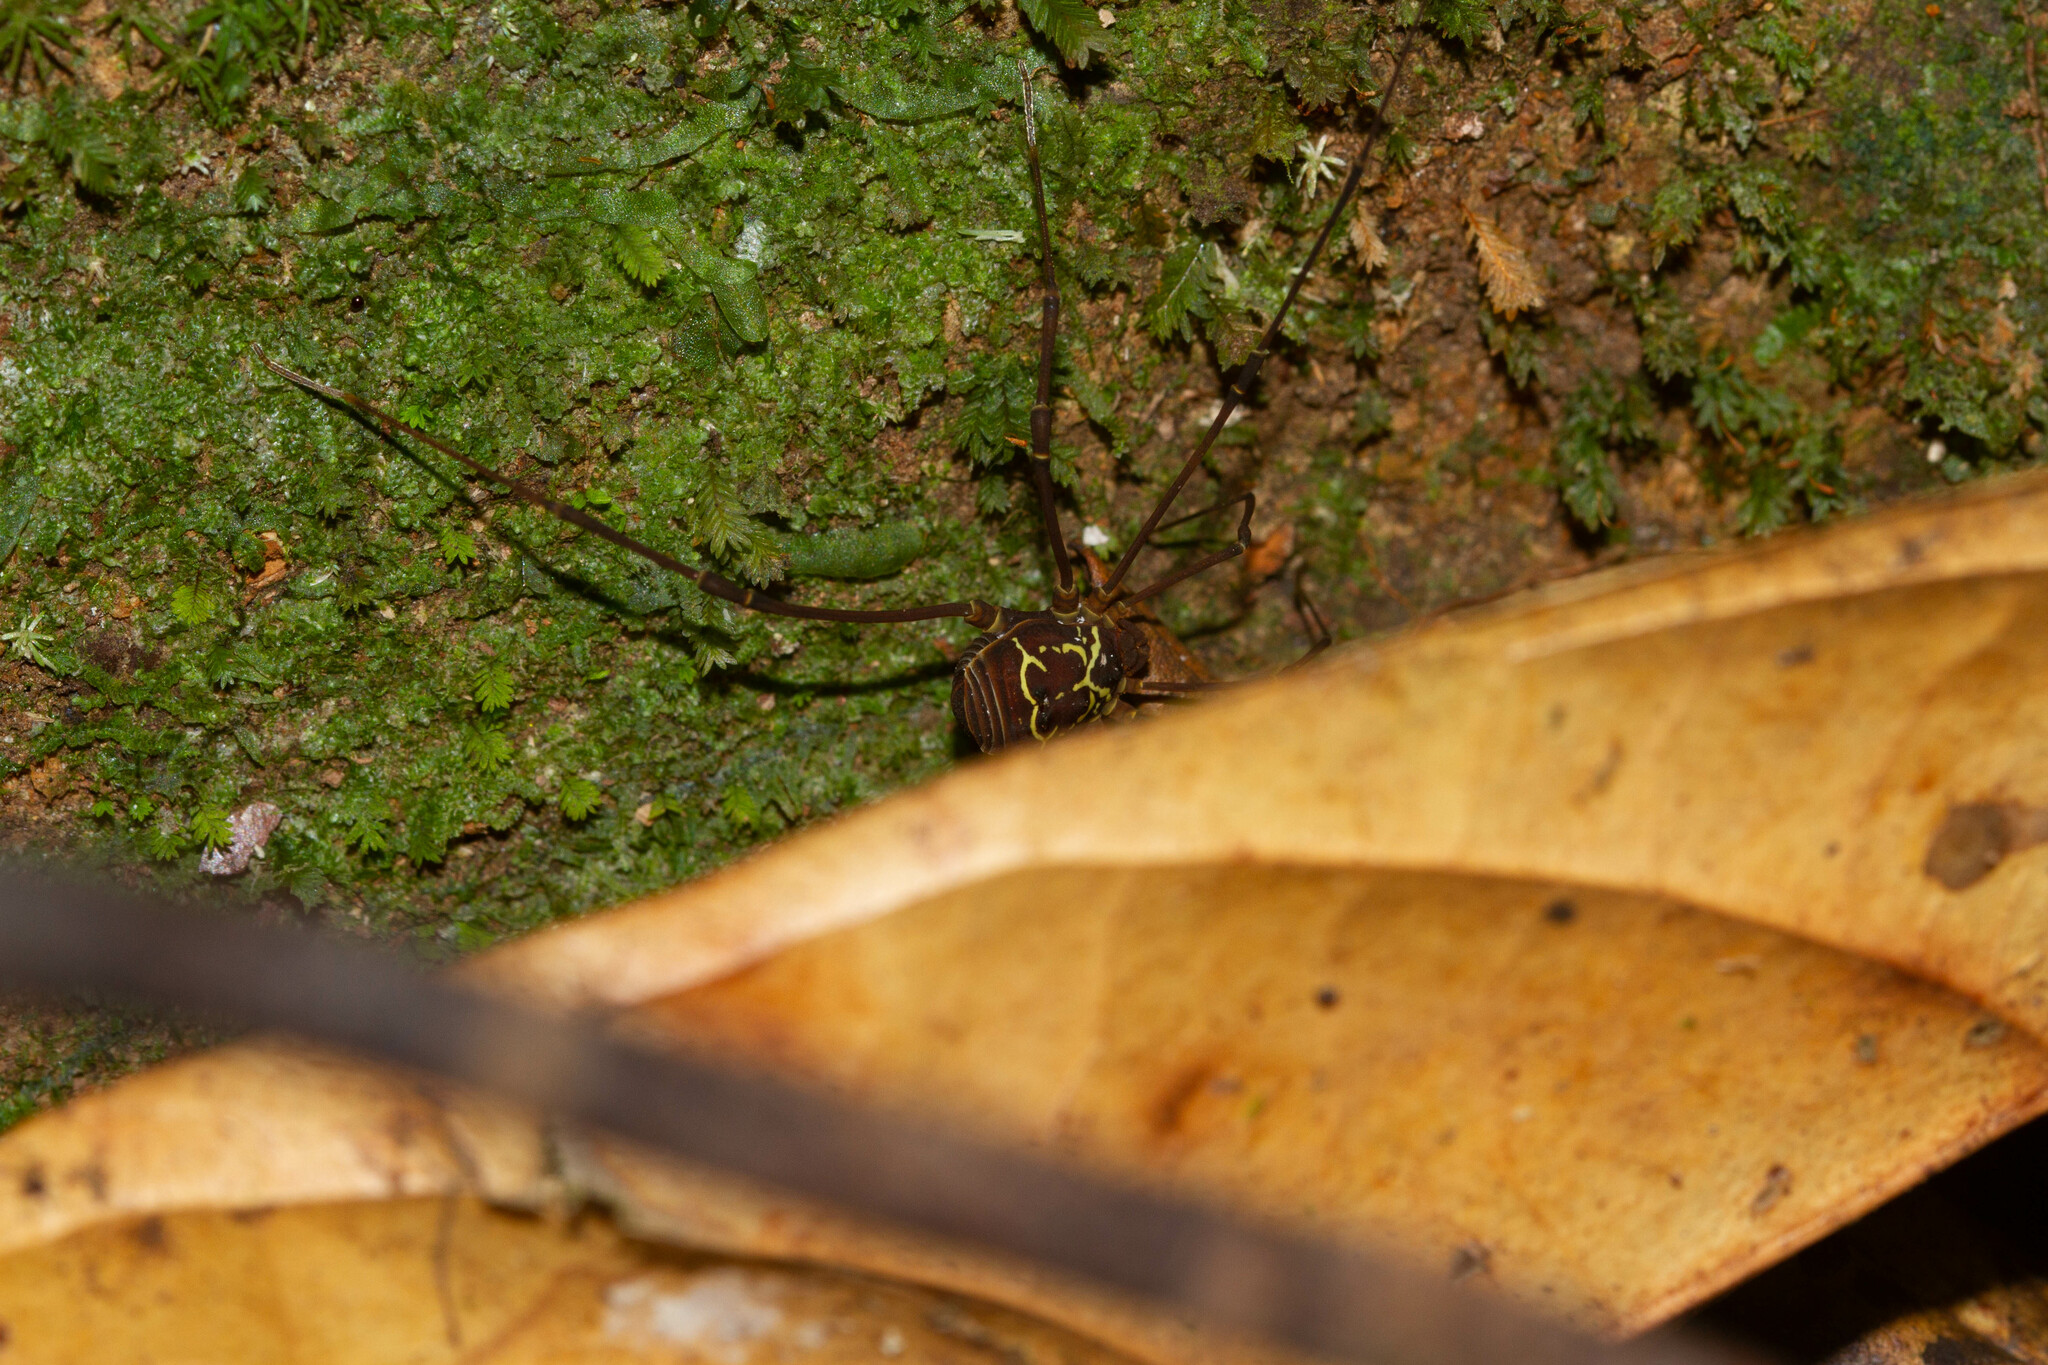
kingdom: Animalia
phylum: Arthropoda
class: Arachnida
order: Opiliones
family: Cosmetidae
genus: Paecilaema
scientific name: Paecilaema curvipes
